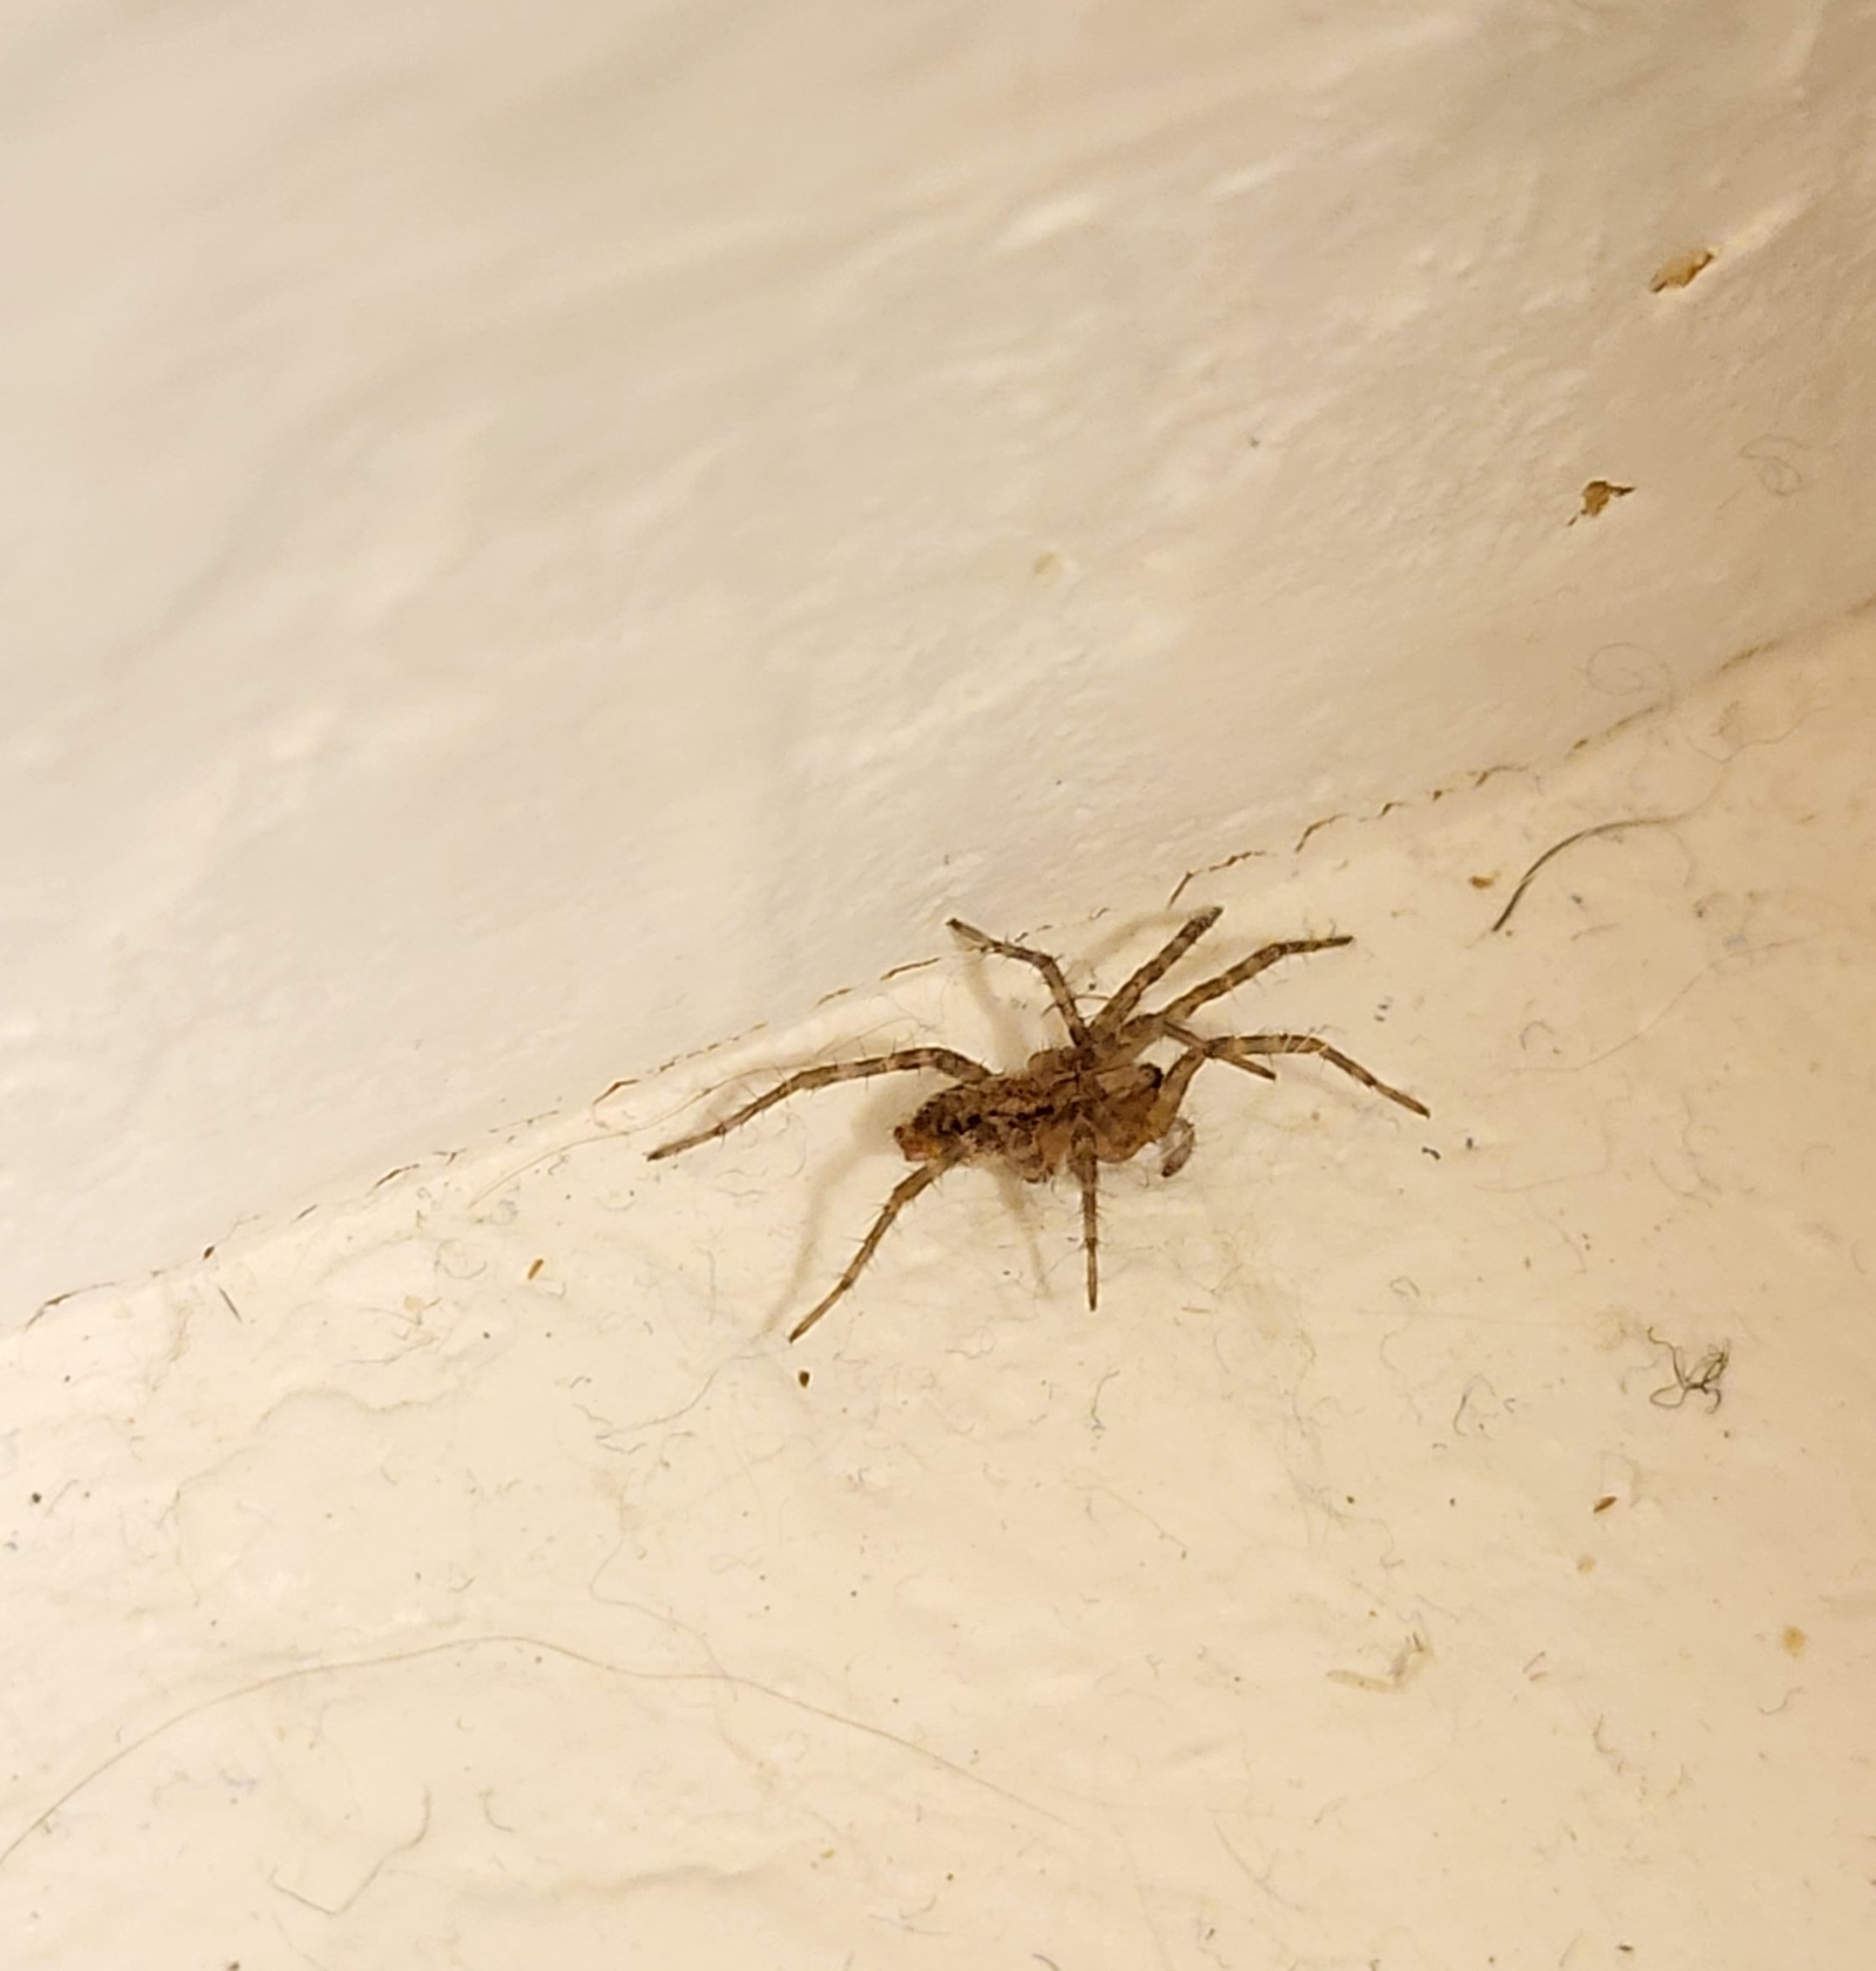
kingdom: Animalia
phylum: Arthropoda
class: Arachnida
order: Araneae
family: Agelenidae
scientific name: Agelenidae
